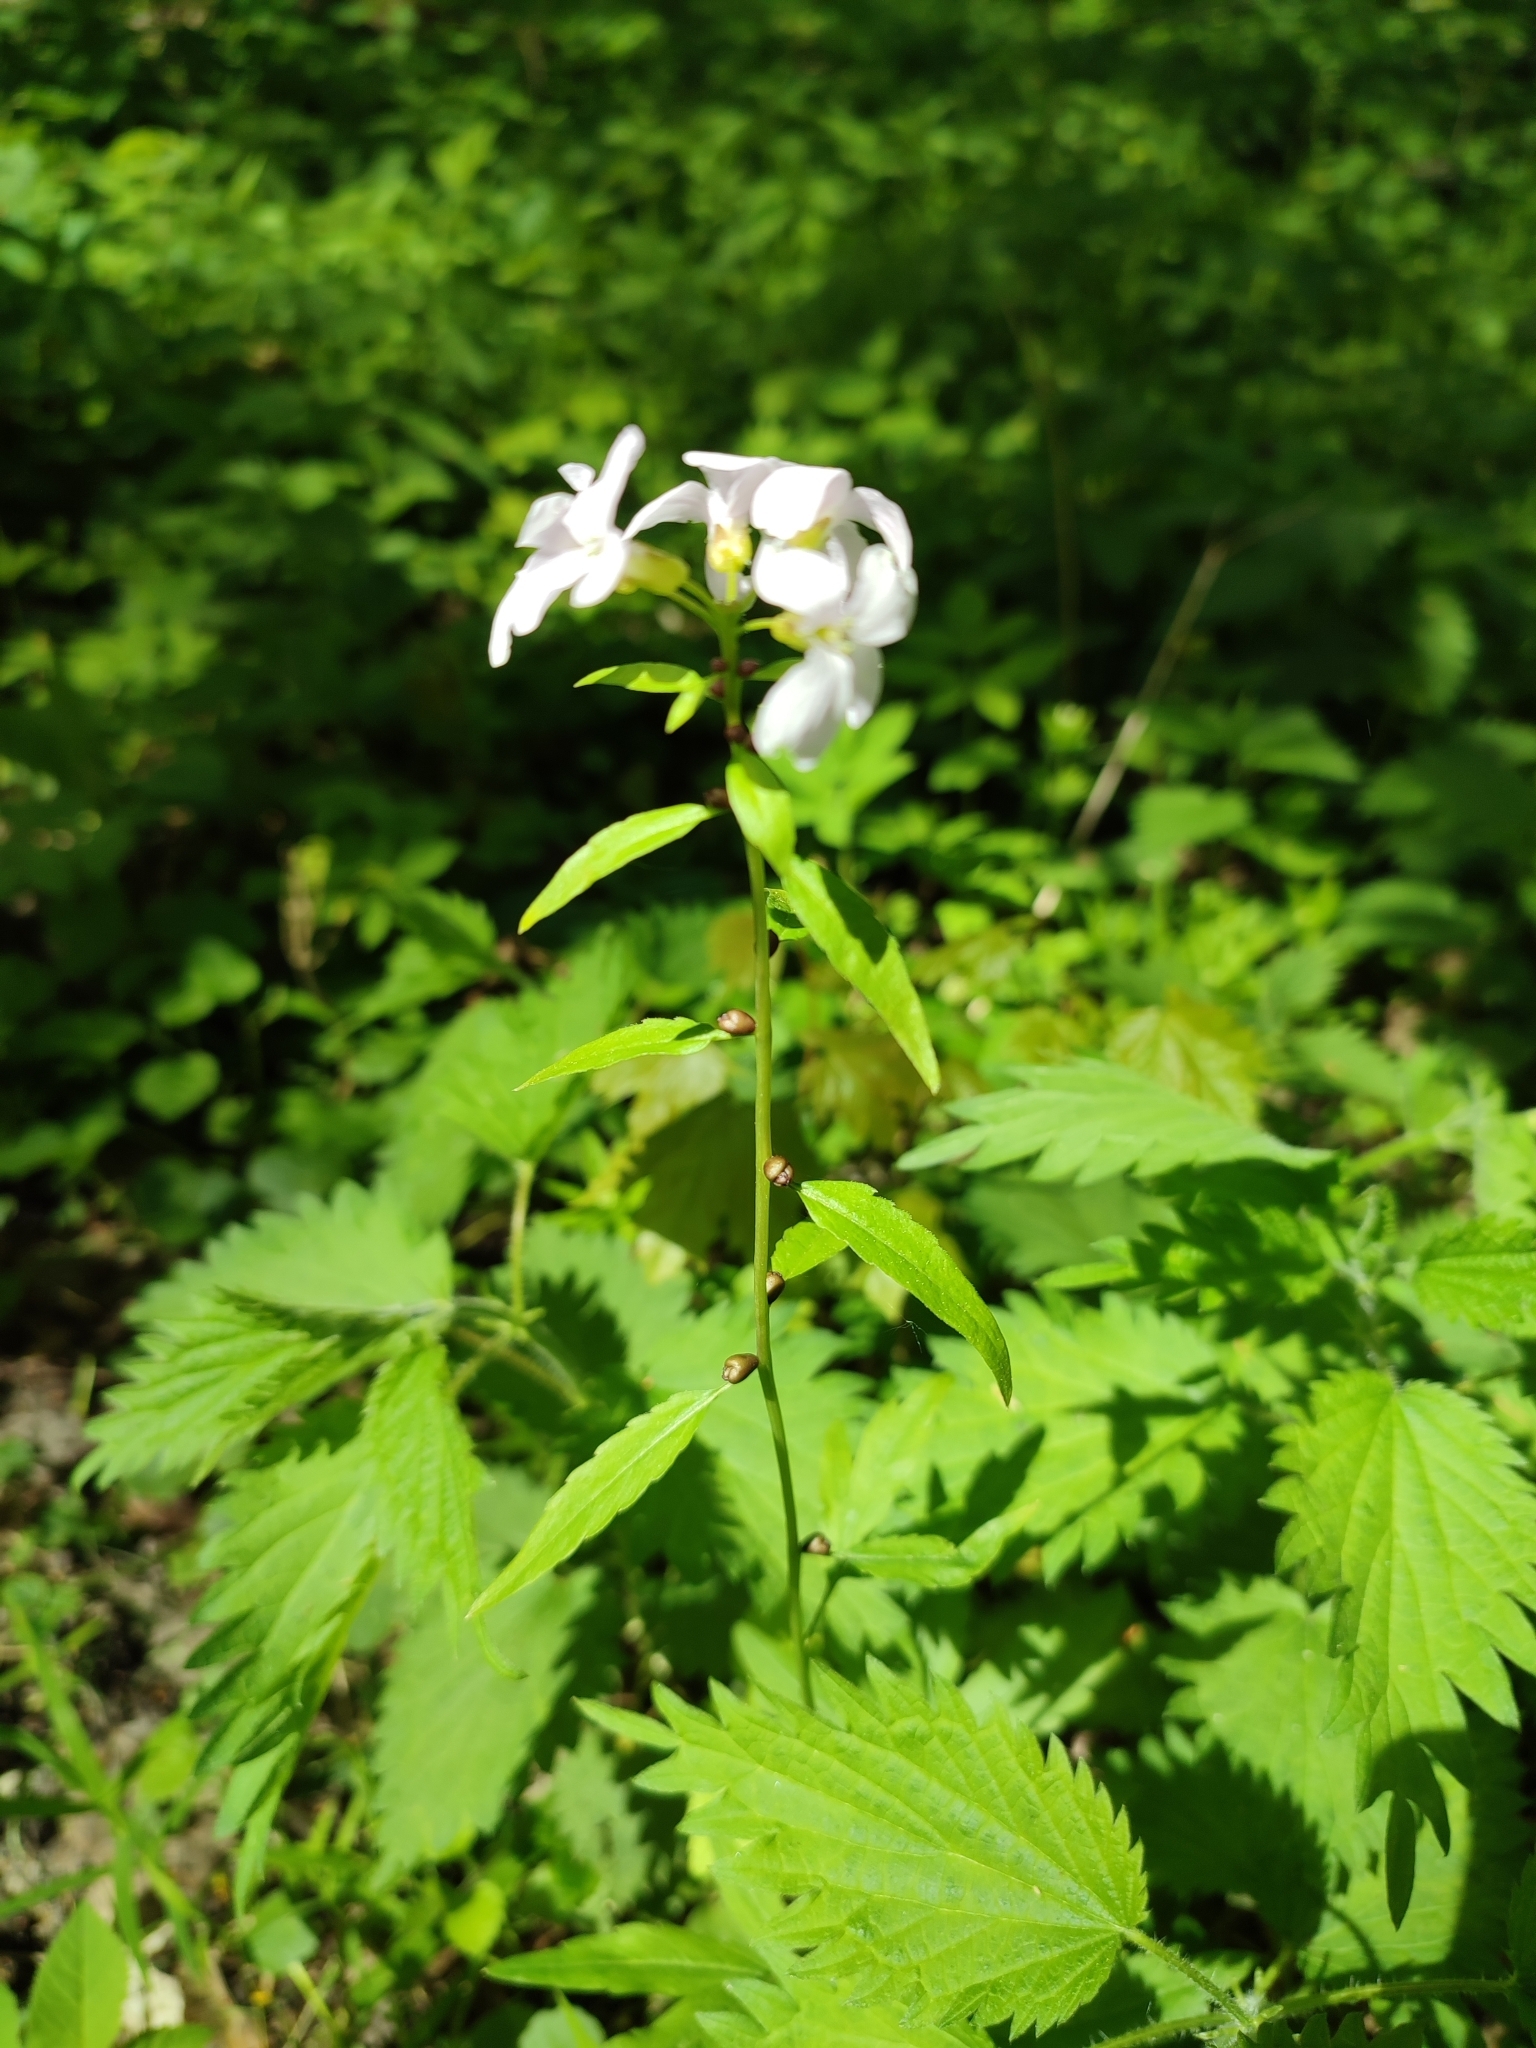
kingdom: Plantae
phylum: Tracheophyta
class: Magnoliopsida
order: Brassicales
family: Brassicaceae
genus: Cardamine
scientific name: Cardamine bulbifera
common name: Coralroot bittercress
